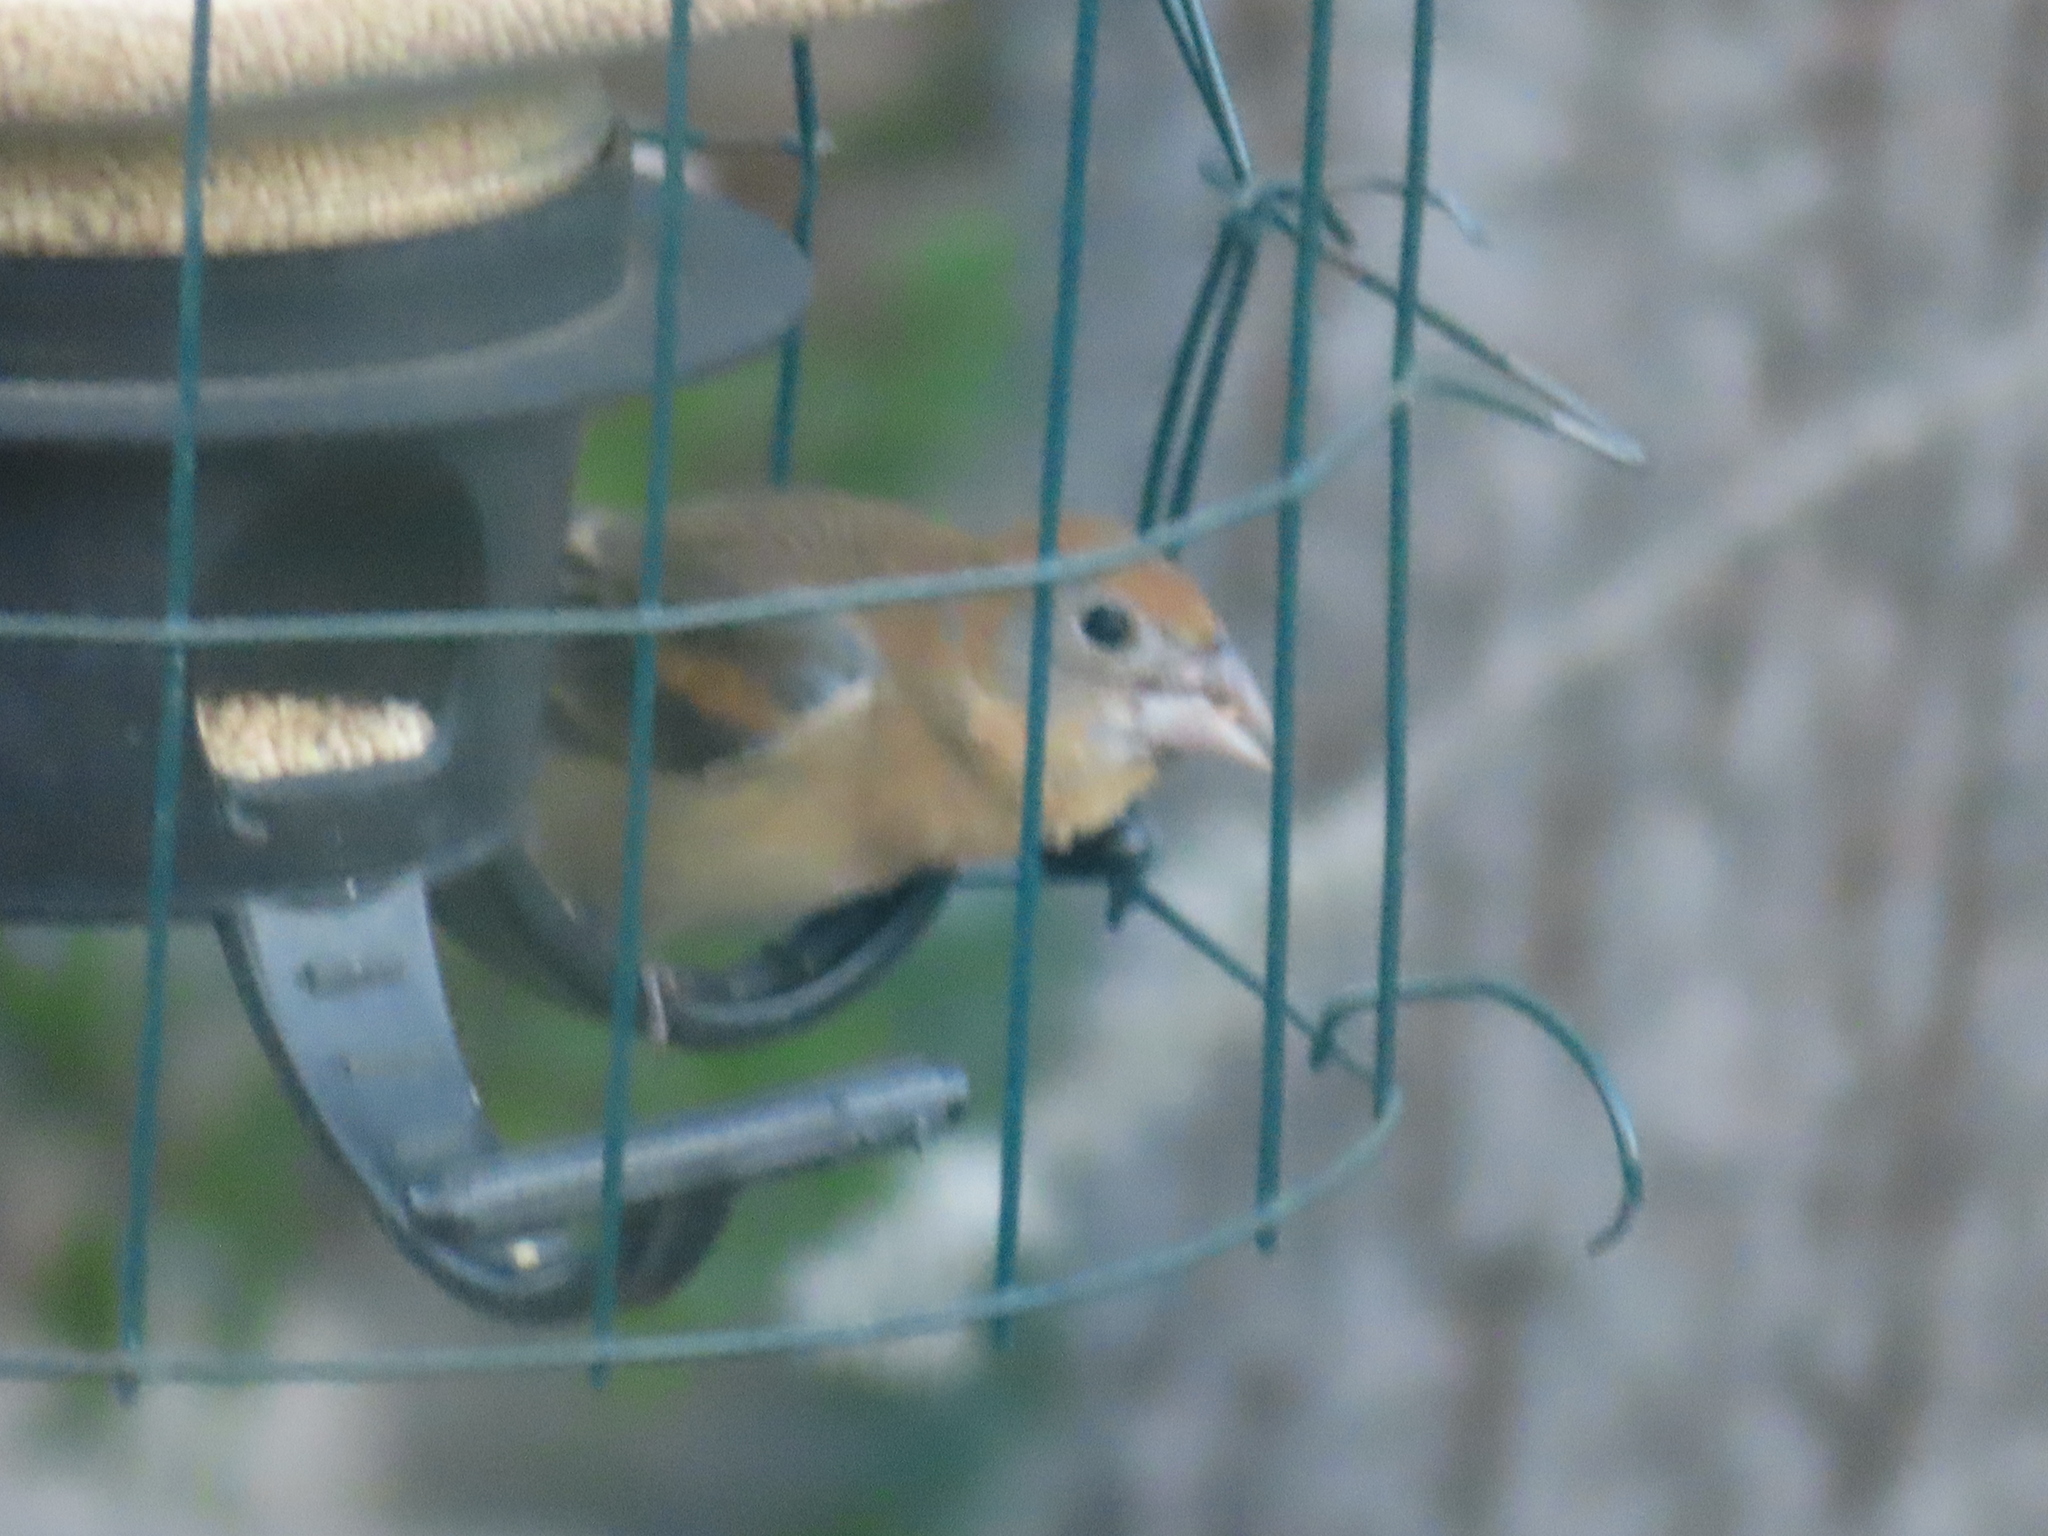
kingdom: Animalia
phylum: Chordata
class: Aves
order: Passeriformes
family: Cardinalidae
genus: Passerina
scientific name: Passerina caerulea
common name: Blue grosbeak
